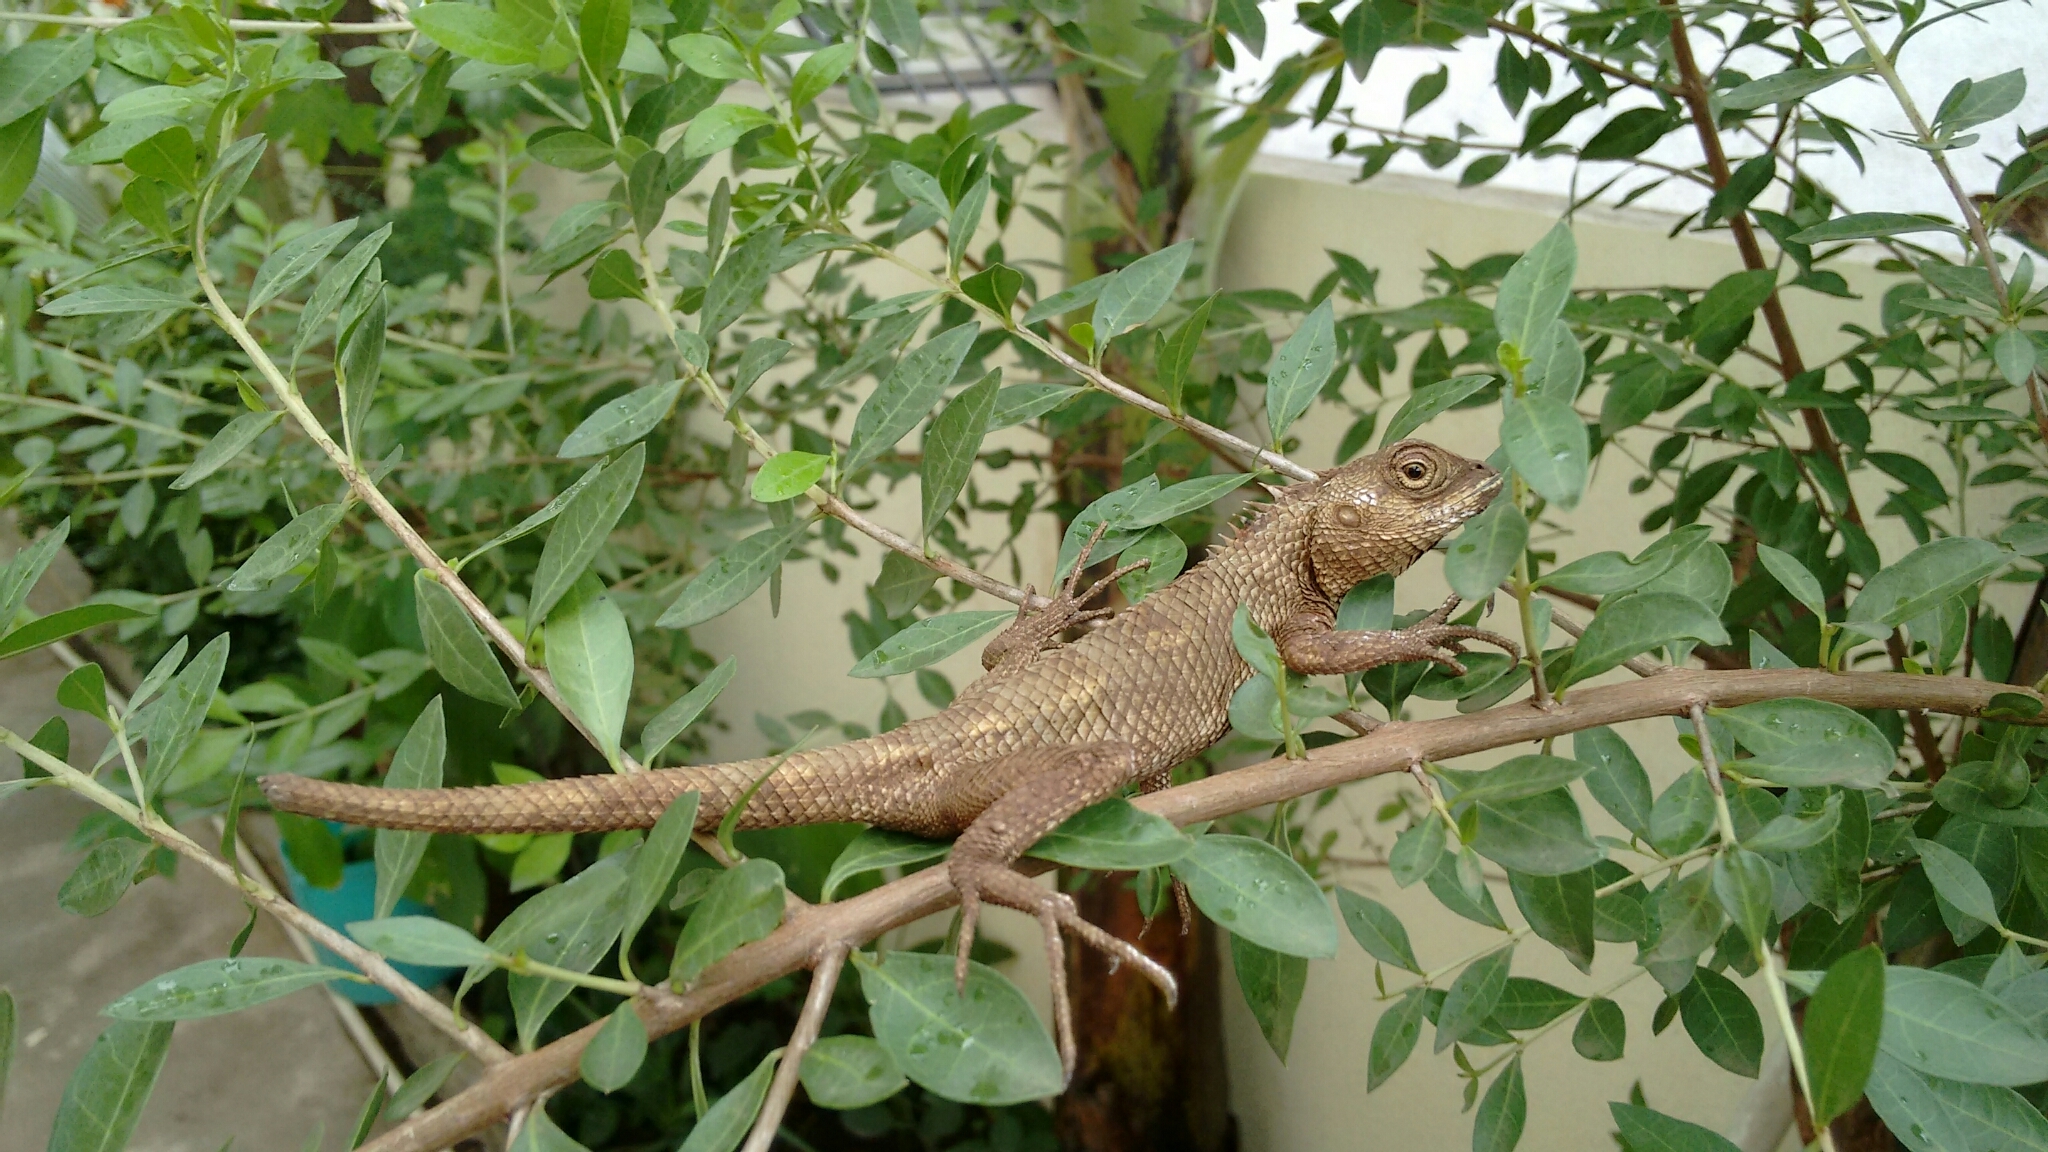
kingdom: Animalia
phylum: Chordata
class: Squamata
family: Agamidae
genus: Calotes
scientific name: Calotes versicolor
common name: Oriental garden lizard
